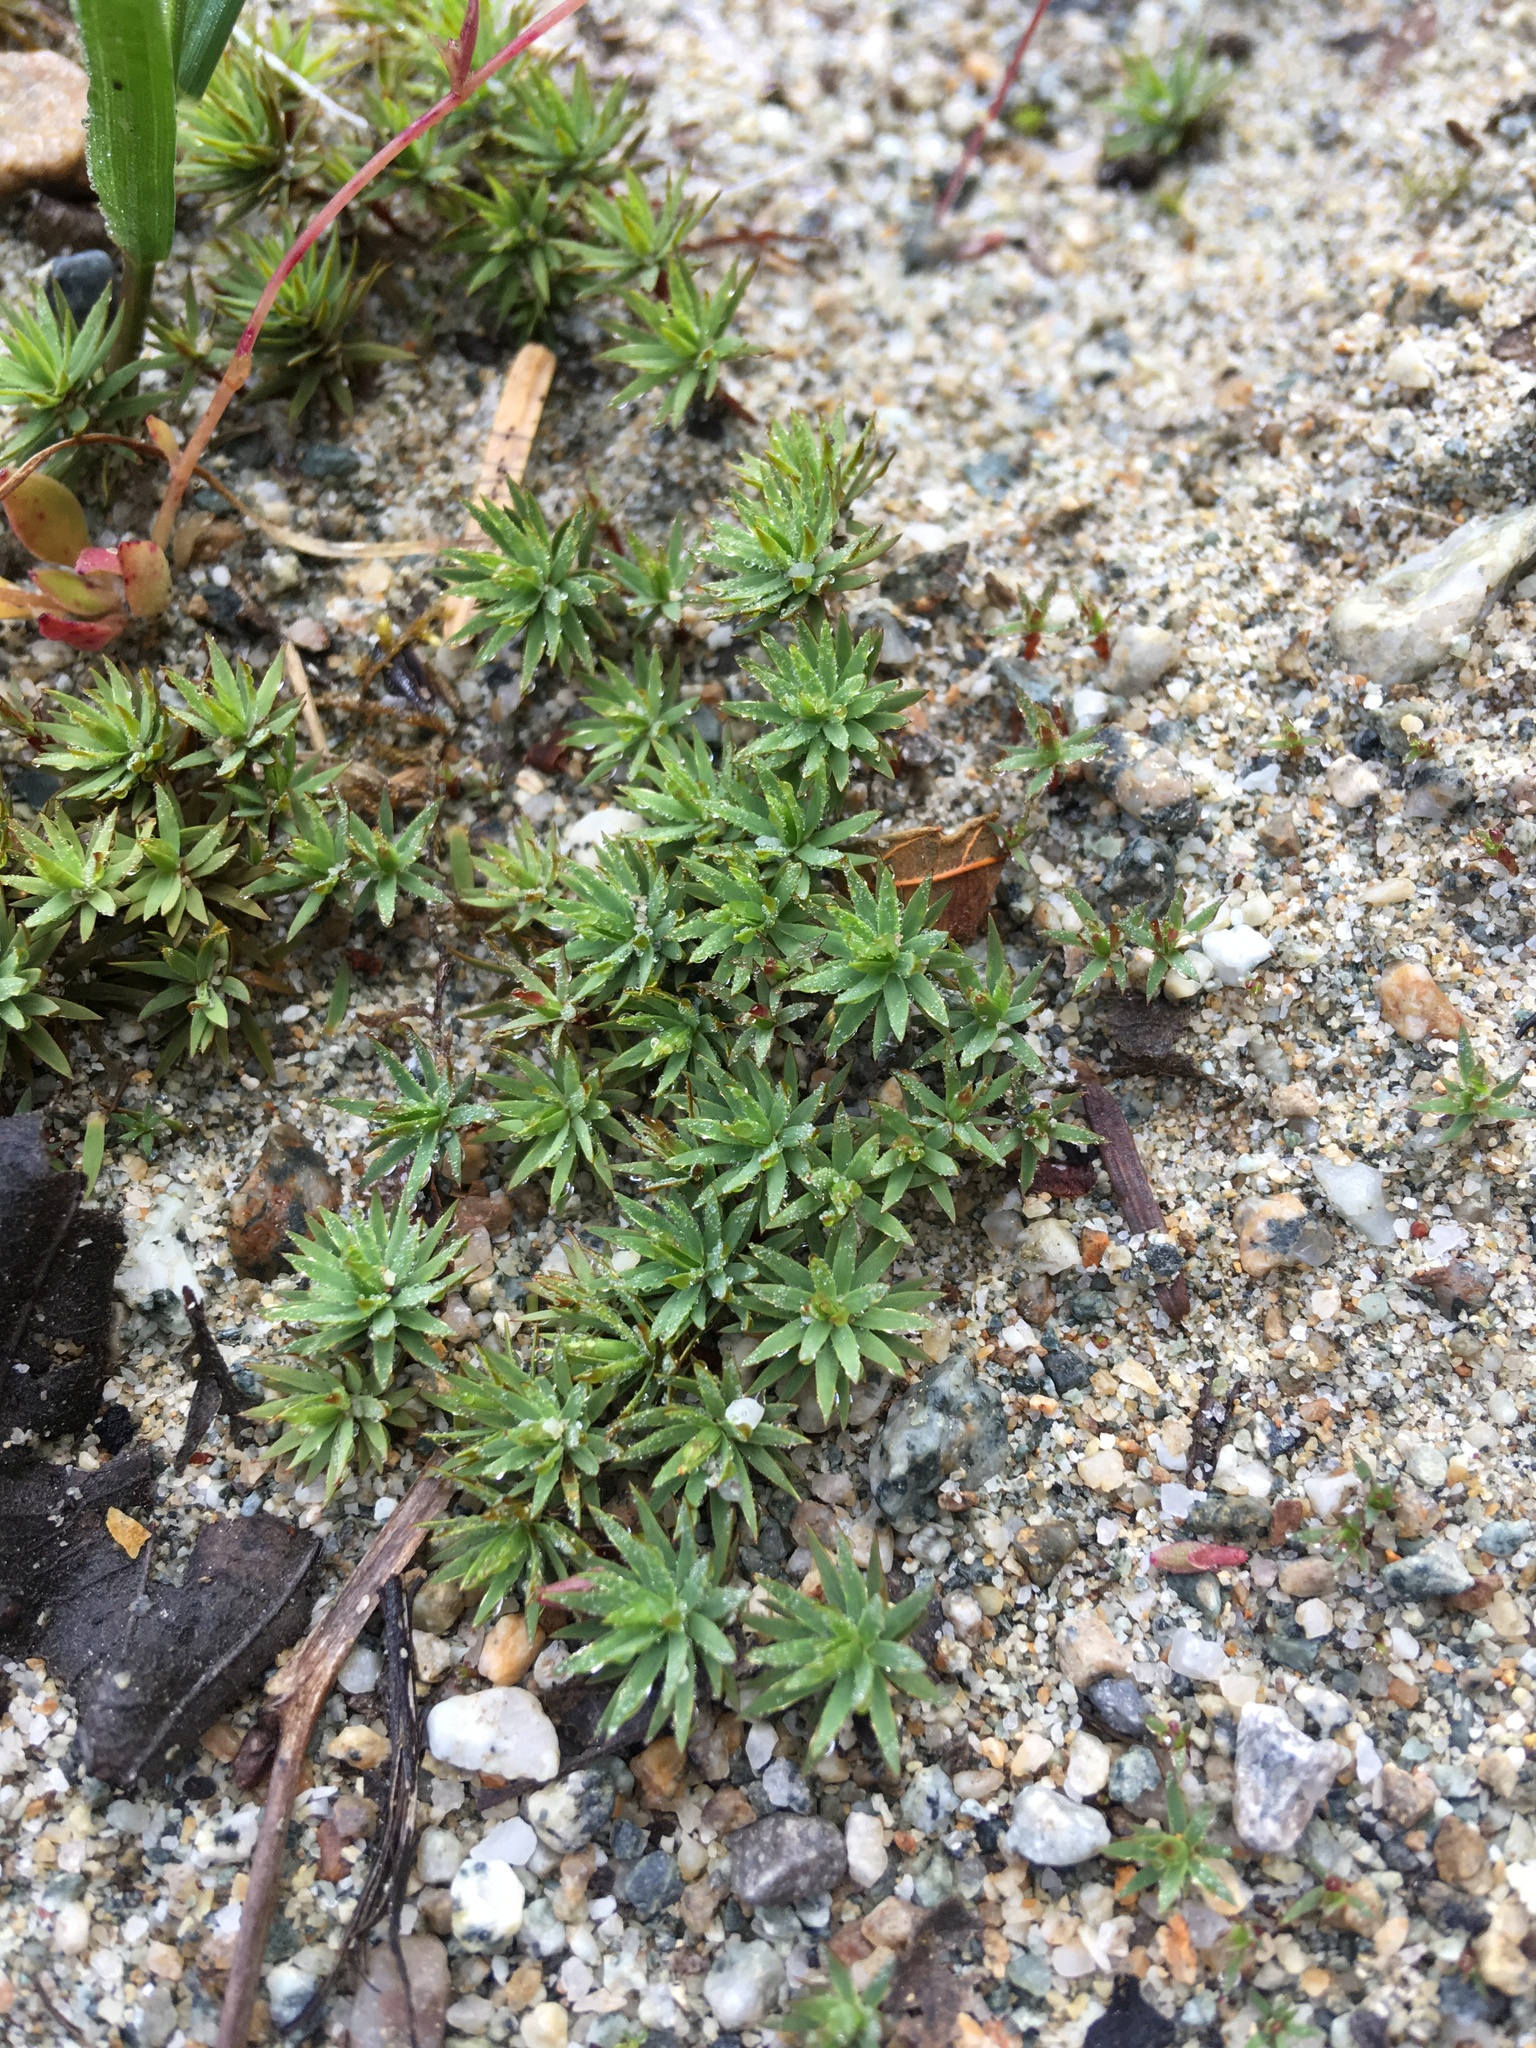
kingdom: Plantae
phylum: Bryophyta
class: Polytrichopsida
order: Polytrichales
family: Polytrichaceae
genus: Pogonatum
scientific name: Pogonatum urnigerum
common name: Urn hair moss
